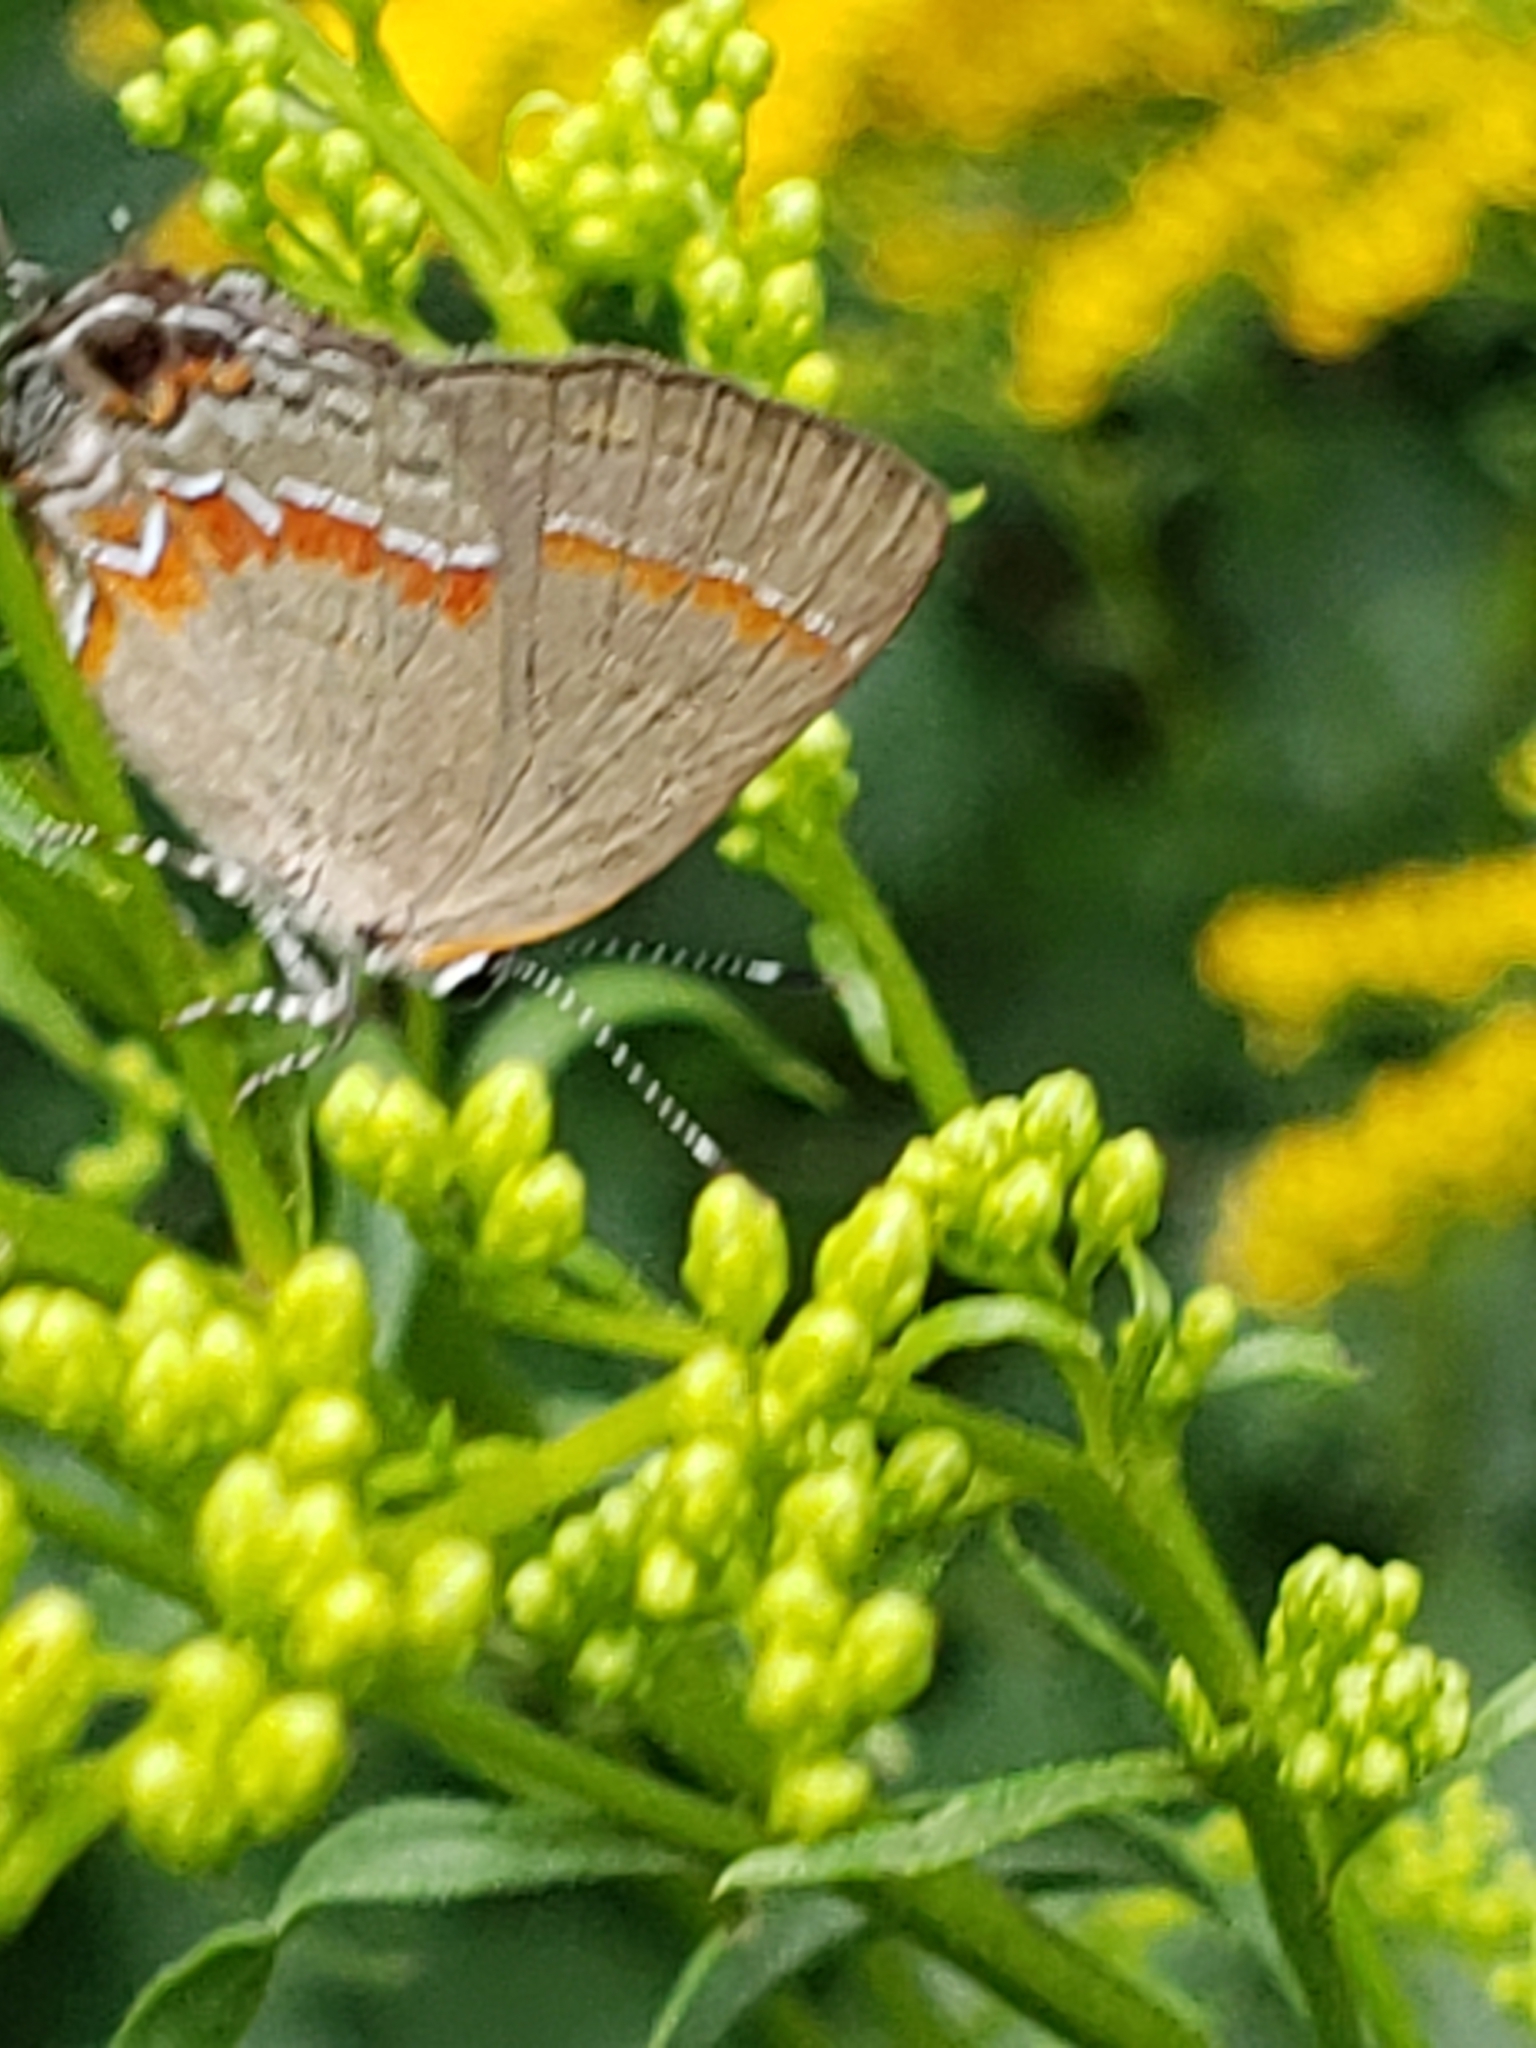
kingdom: Animalia
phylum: Arthropoda
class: Insecta
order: Lepidoptera
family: Lycaenidae
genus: Calycopis
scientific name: Calycopis cecrops
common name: Red-banded hairstreak
